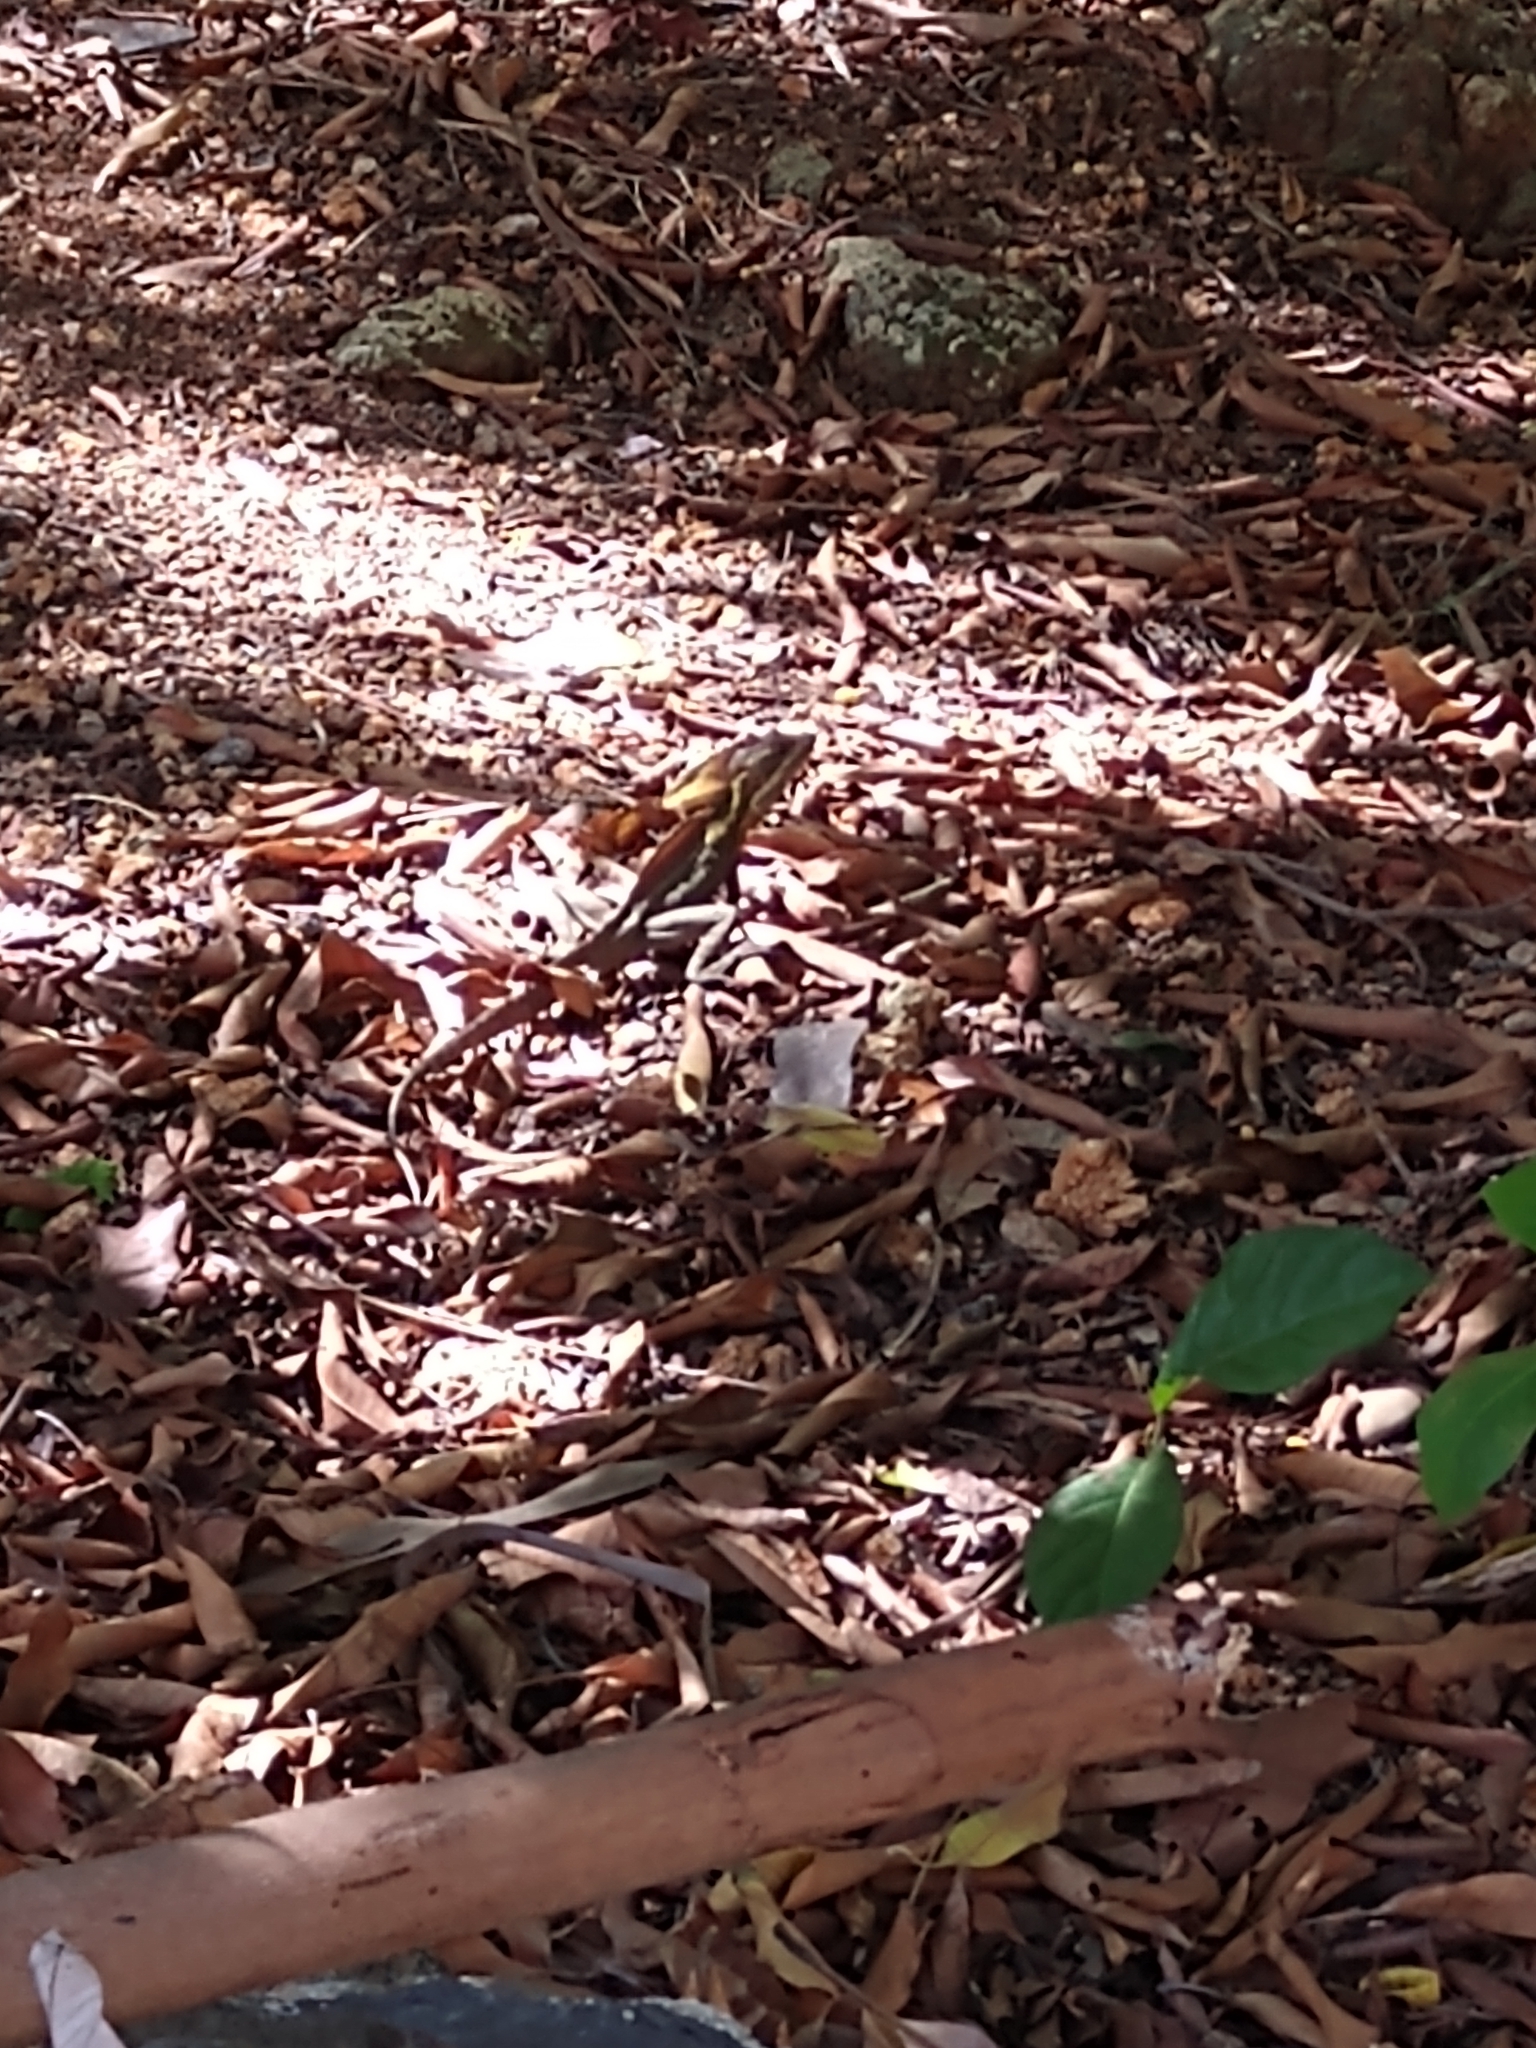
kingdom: Animalia
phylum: Chordata
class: Squamata
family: Corytophanidae
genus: Basiliscus
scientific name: Basiliscus vittatus
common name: Brown basilisk
